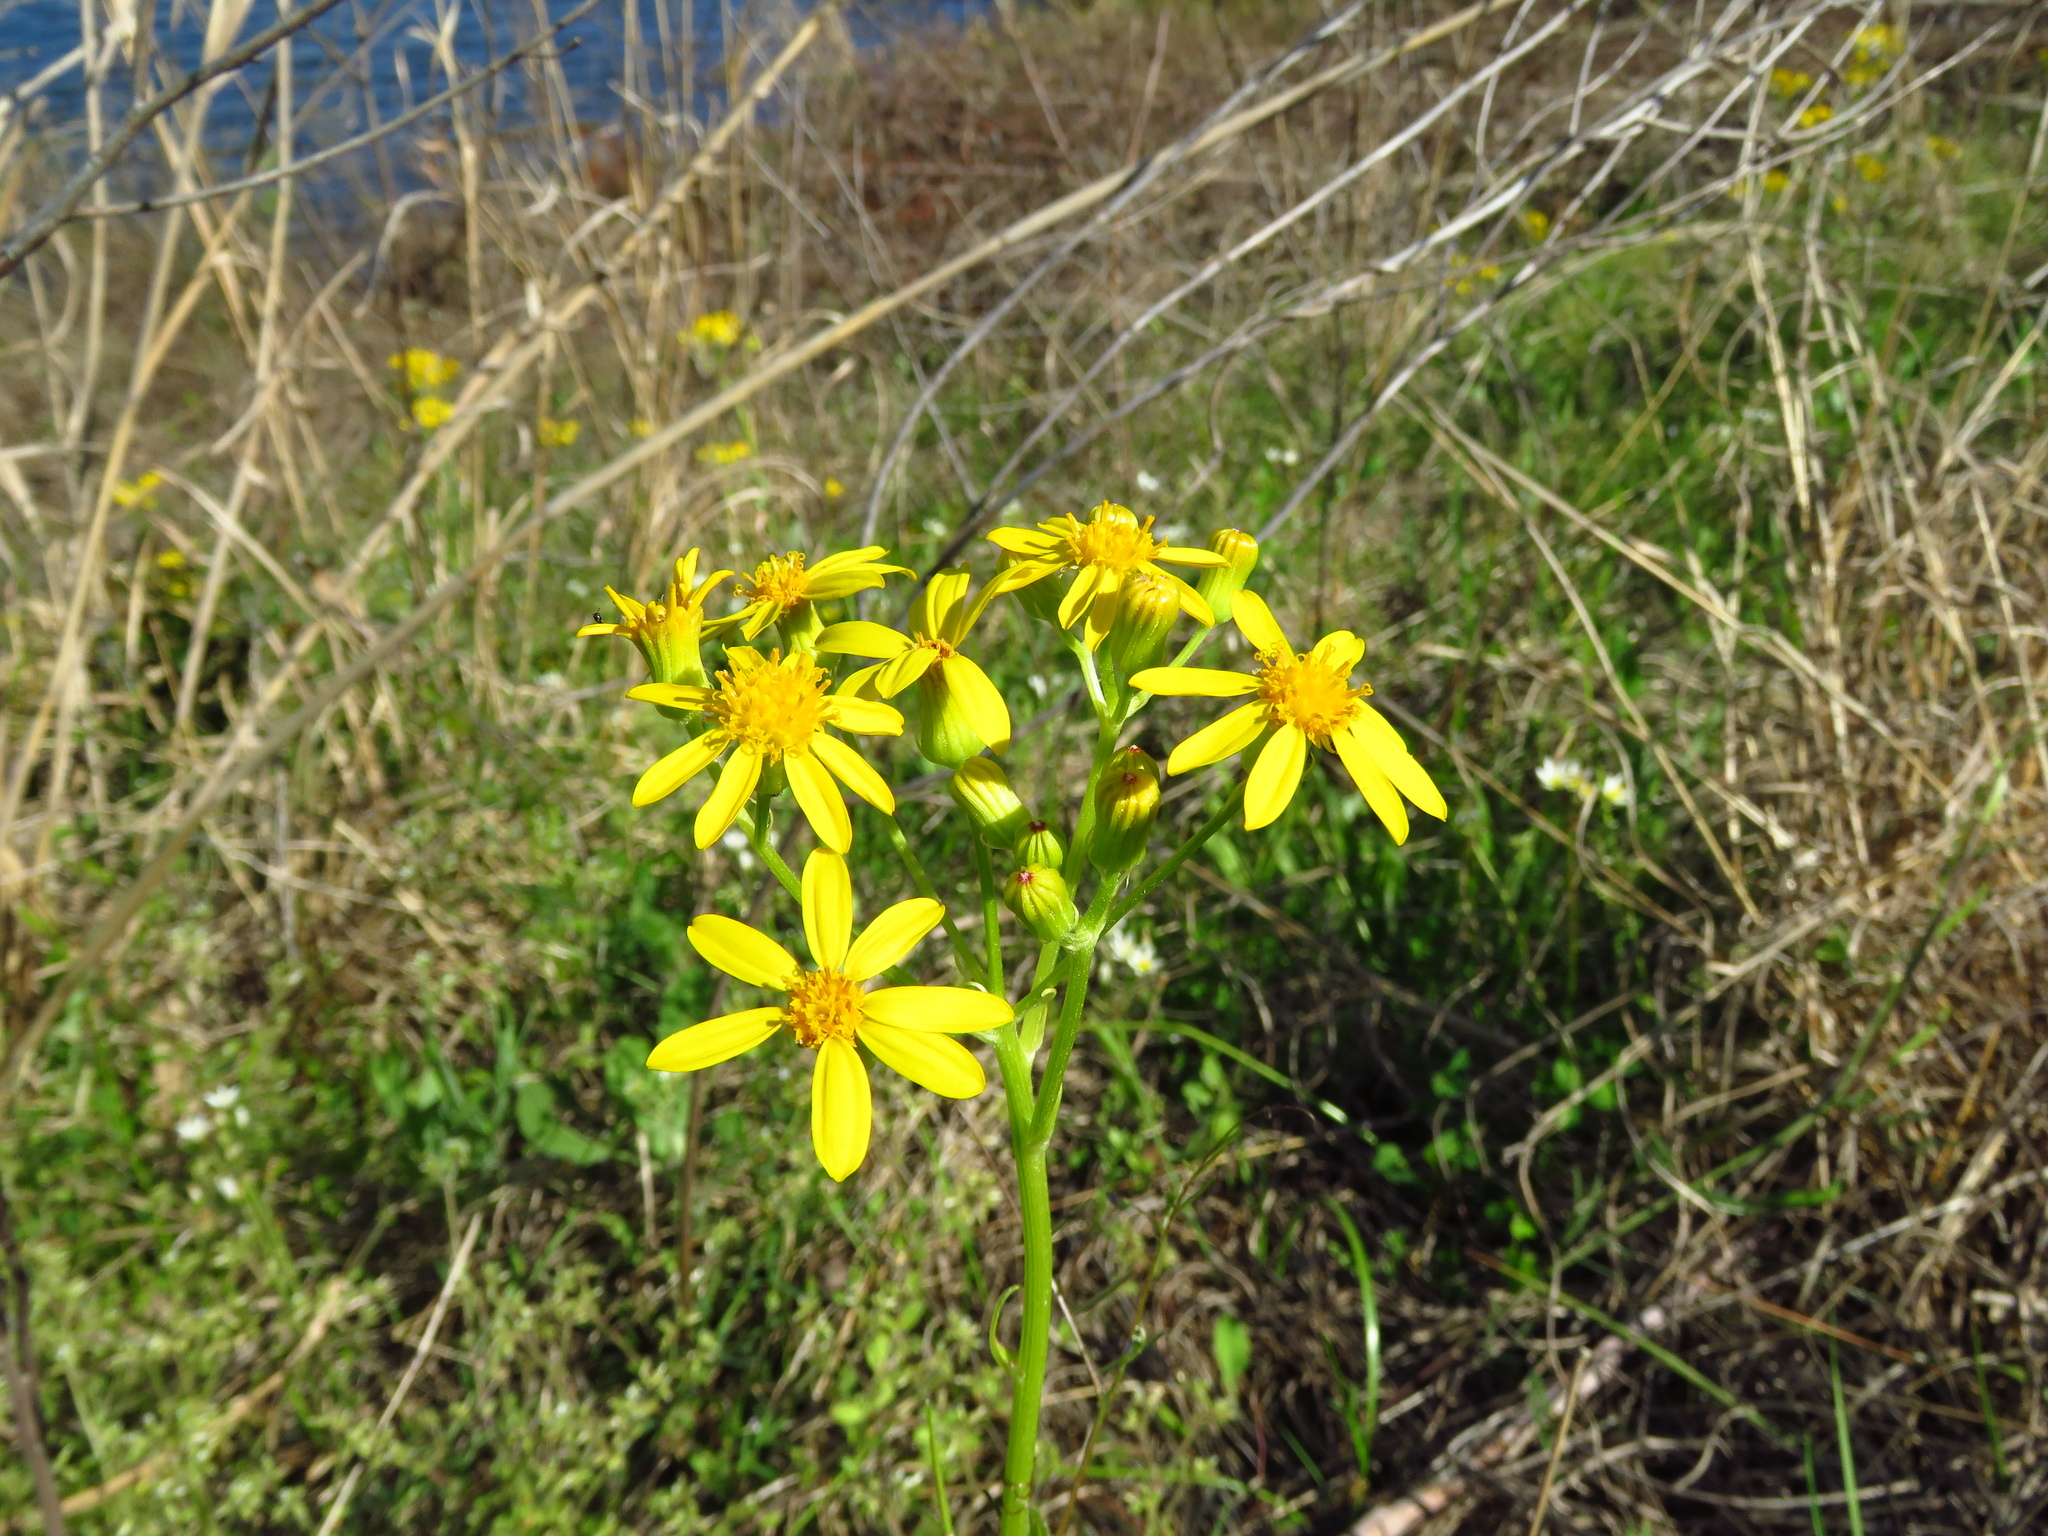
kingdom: Plantae
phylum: Tracheophyta
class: Magnoliopsida
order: Asterales
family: Asteraceae
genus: Senecio
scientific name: Senecio ampullaceus
